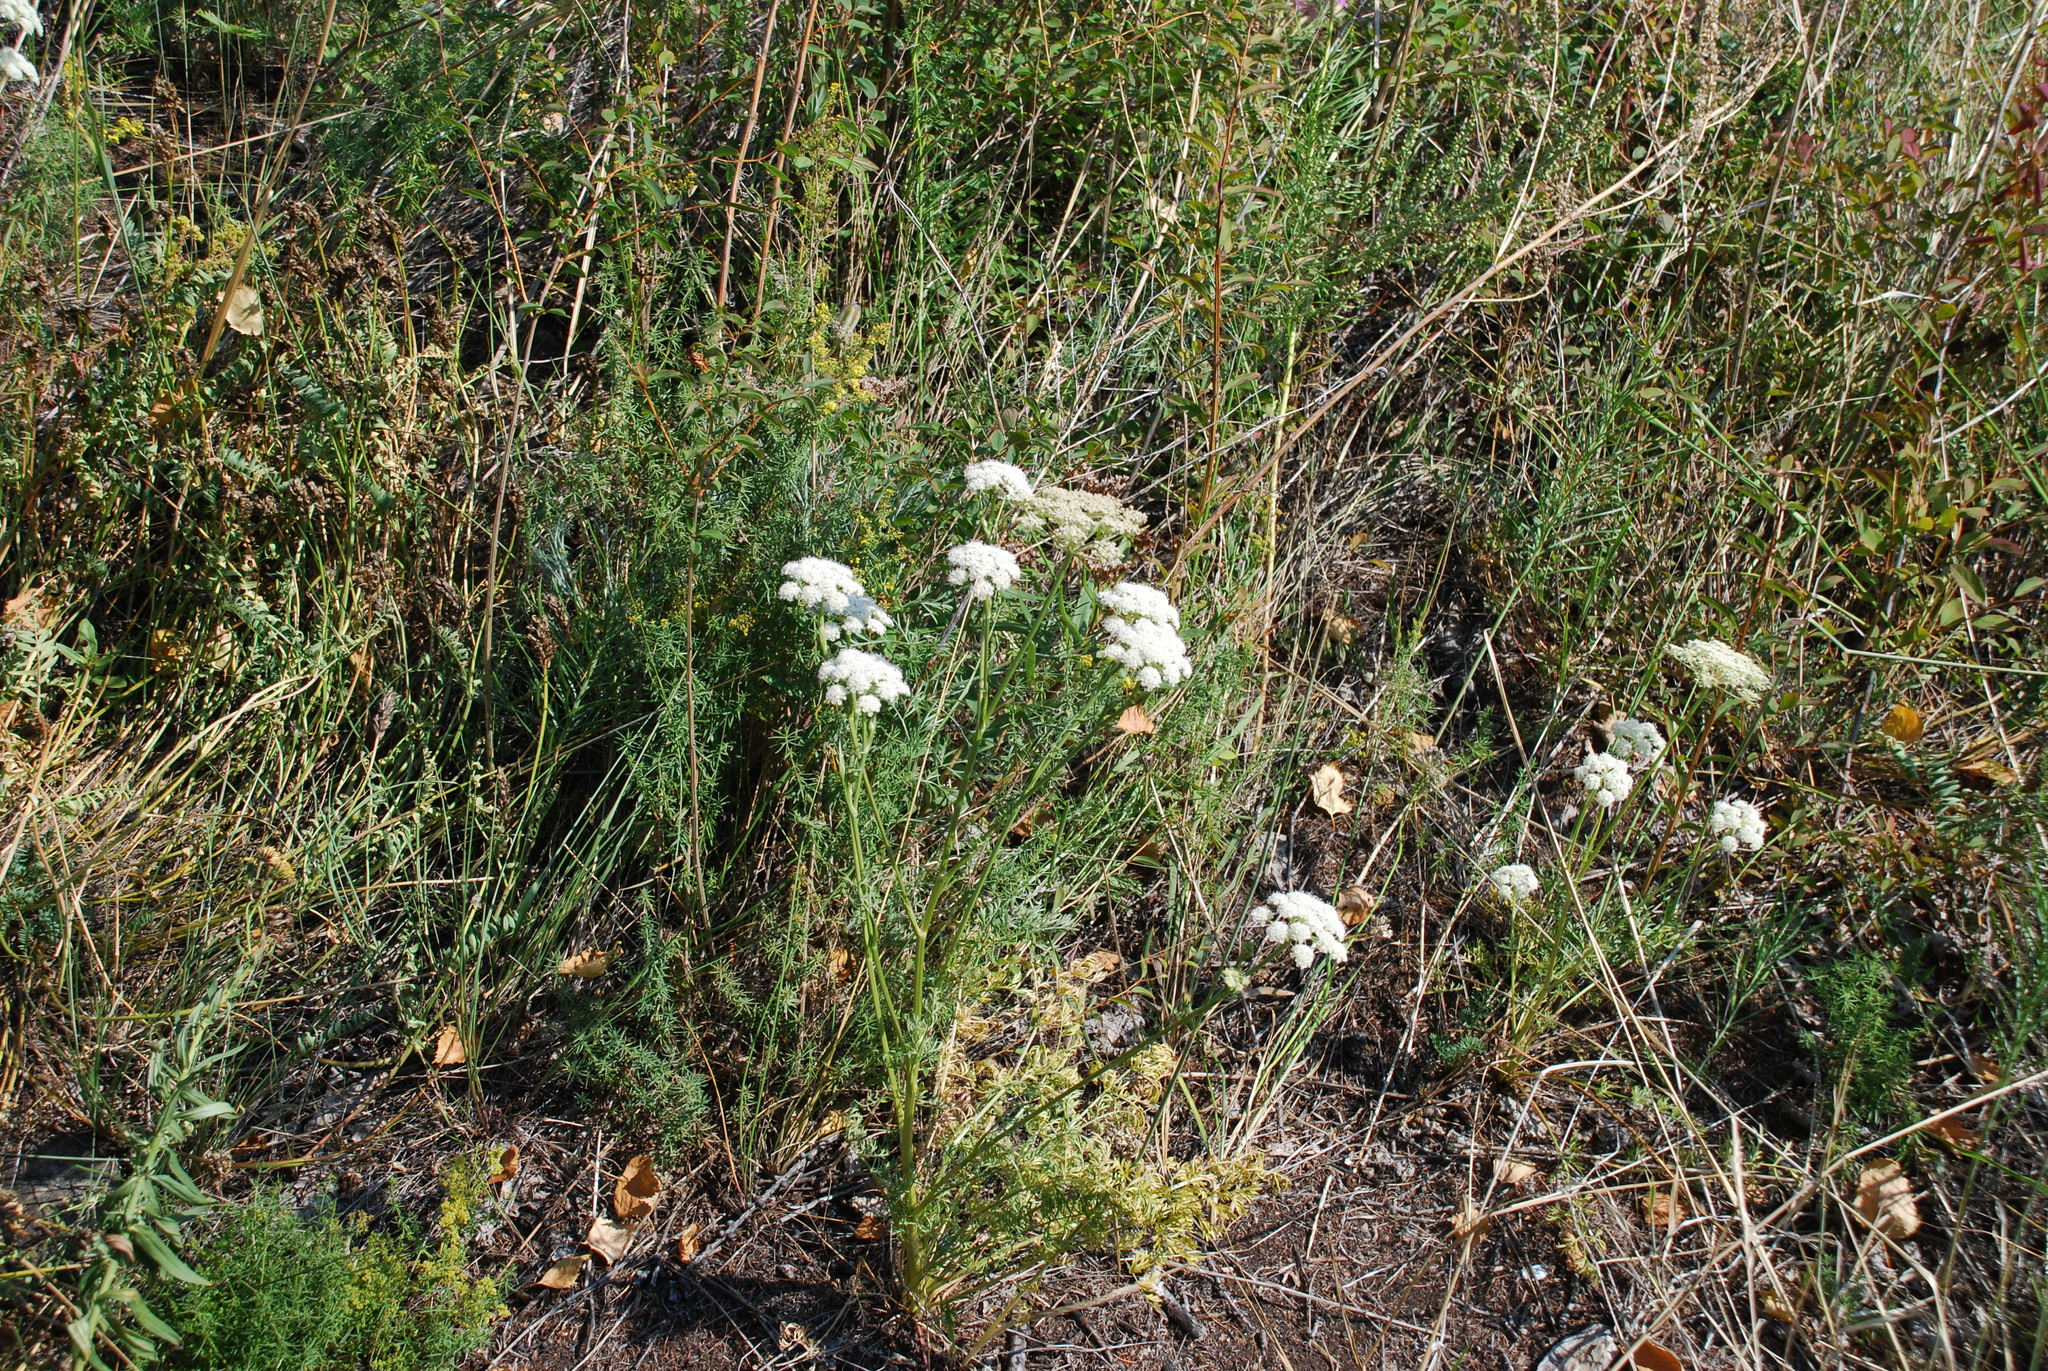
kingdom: Plantae
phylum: Tracheophyta
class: Magnoliopsida
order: Apiales
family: Apiaceae
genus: Kitagawia
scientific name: Kitagawia baicalensis
